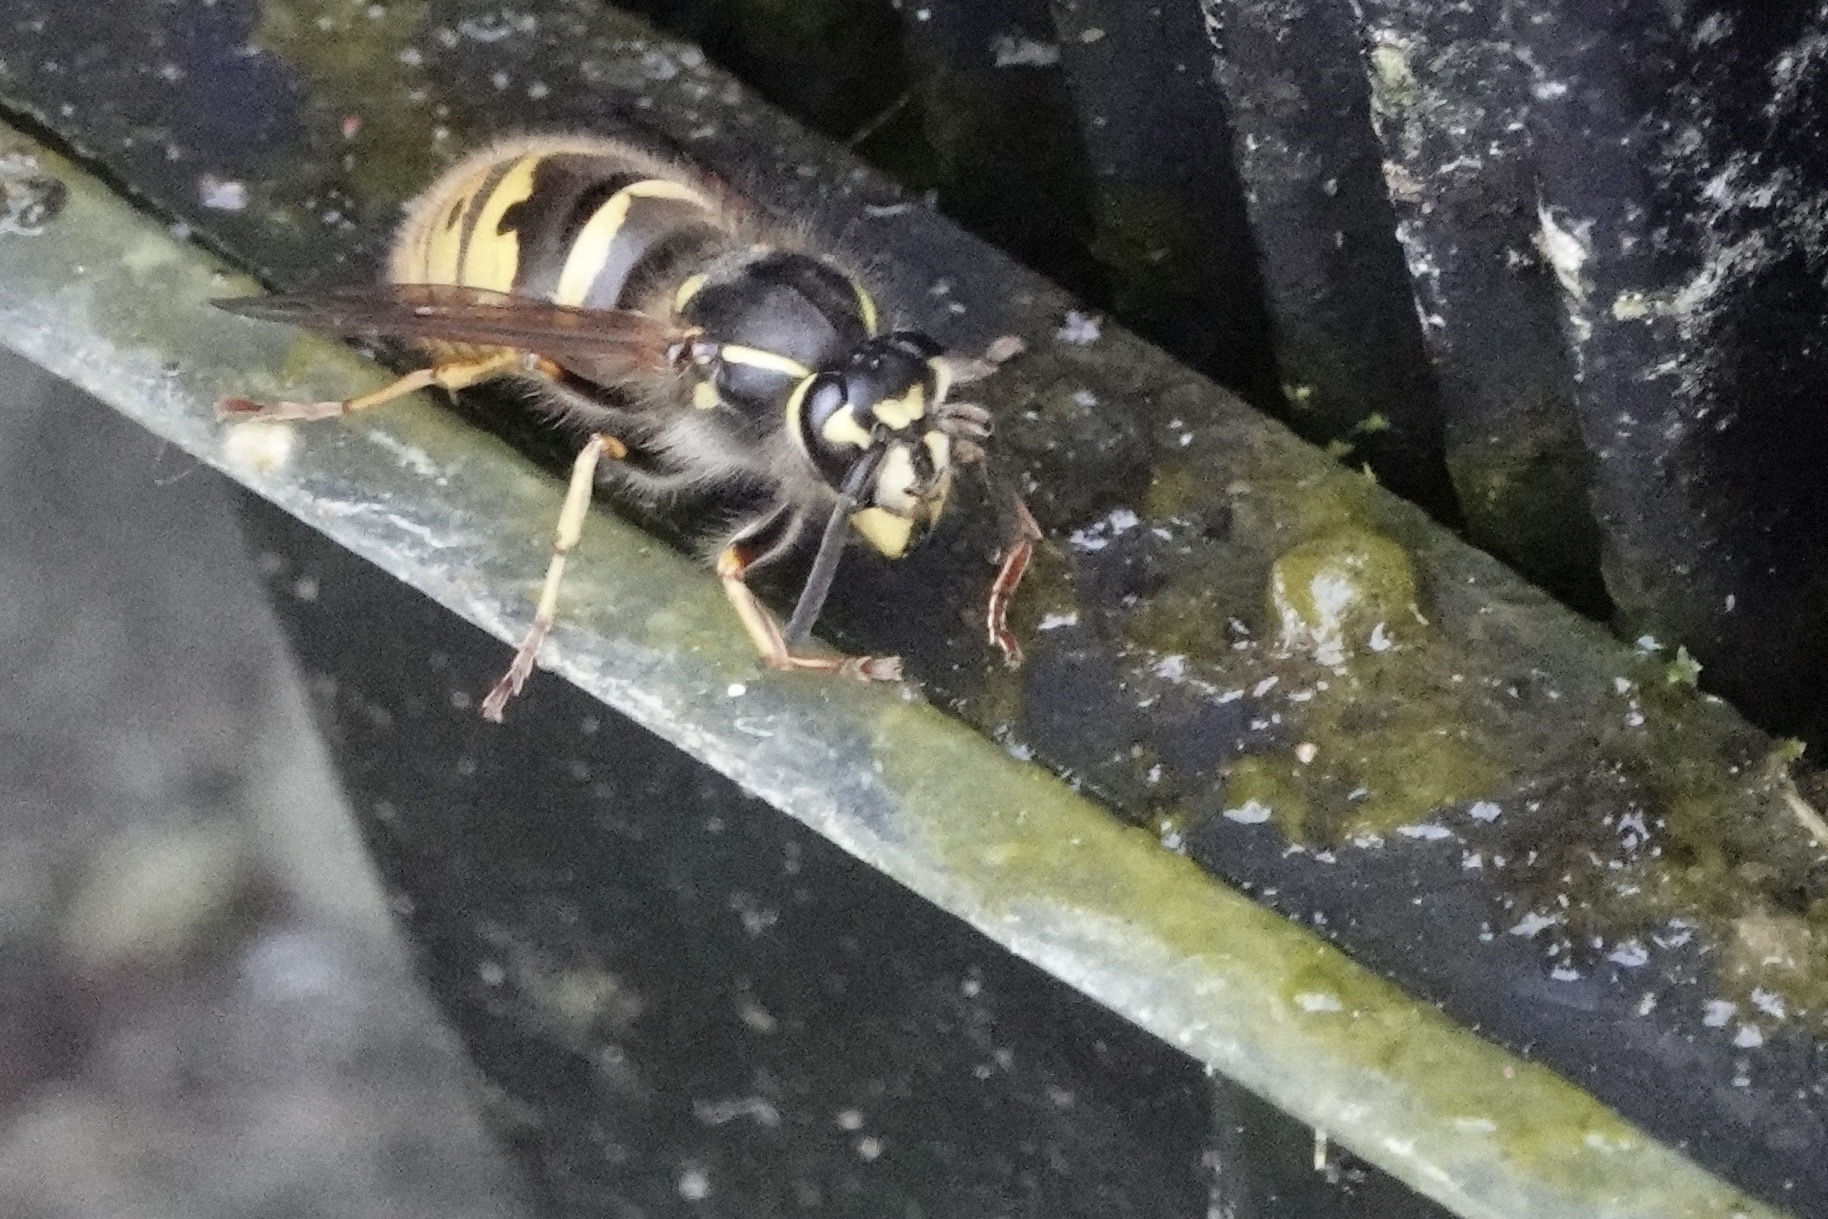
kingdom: Animalia
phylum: Arthropoda
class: Insecta
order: Hymenoptera
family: Vespidae
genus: Vespula
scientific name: Vespula vulgaris
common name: Common wasp
